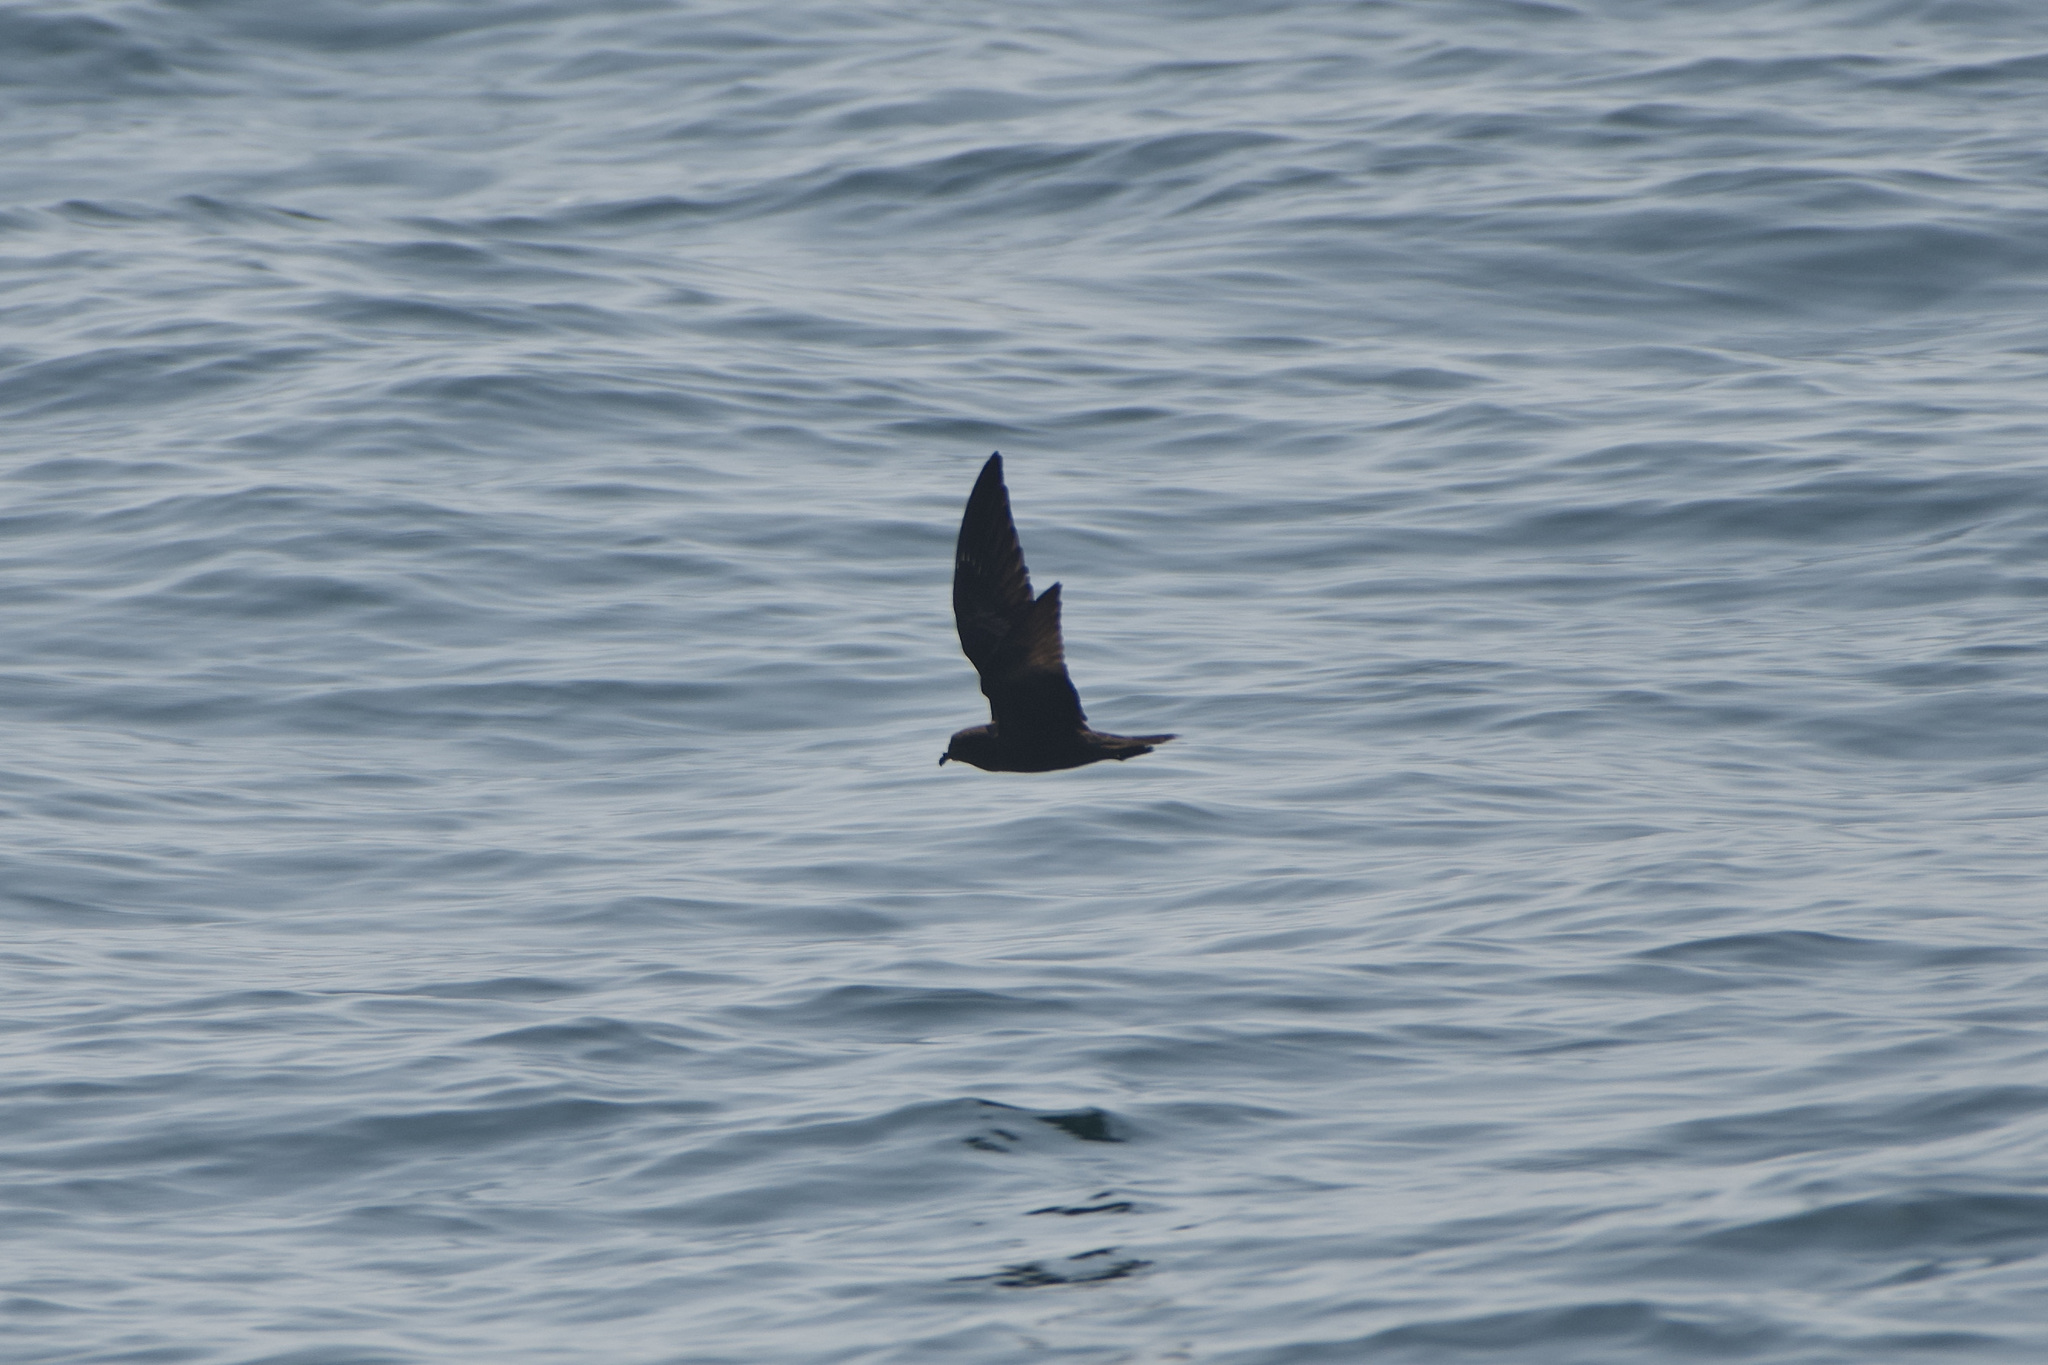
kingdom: Animalia
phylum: Chordata
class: Aves
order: Procellariiformes
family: Hydrobatidae
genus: Hydrobates
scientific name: Hydrobates melania
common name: Black storm petrel
